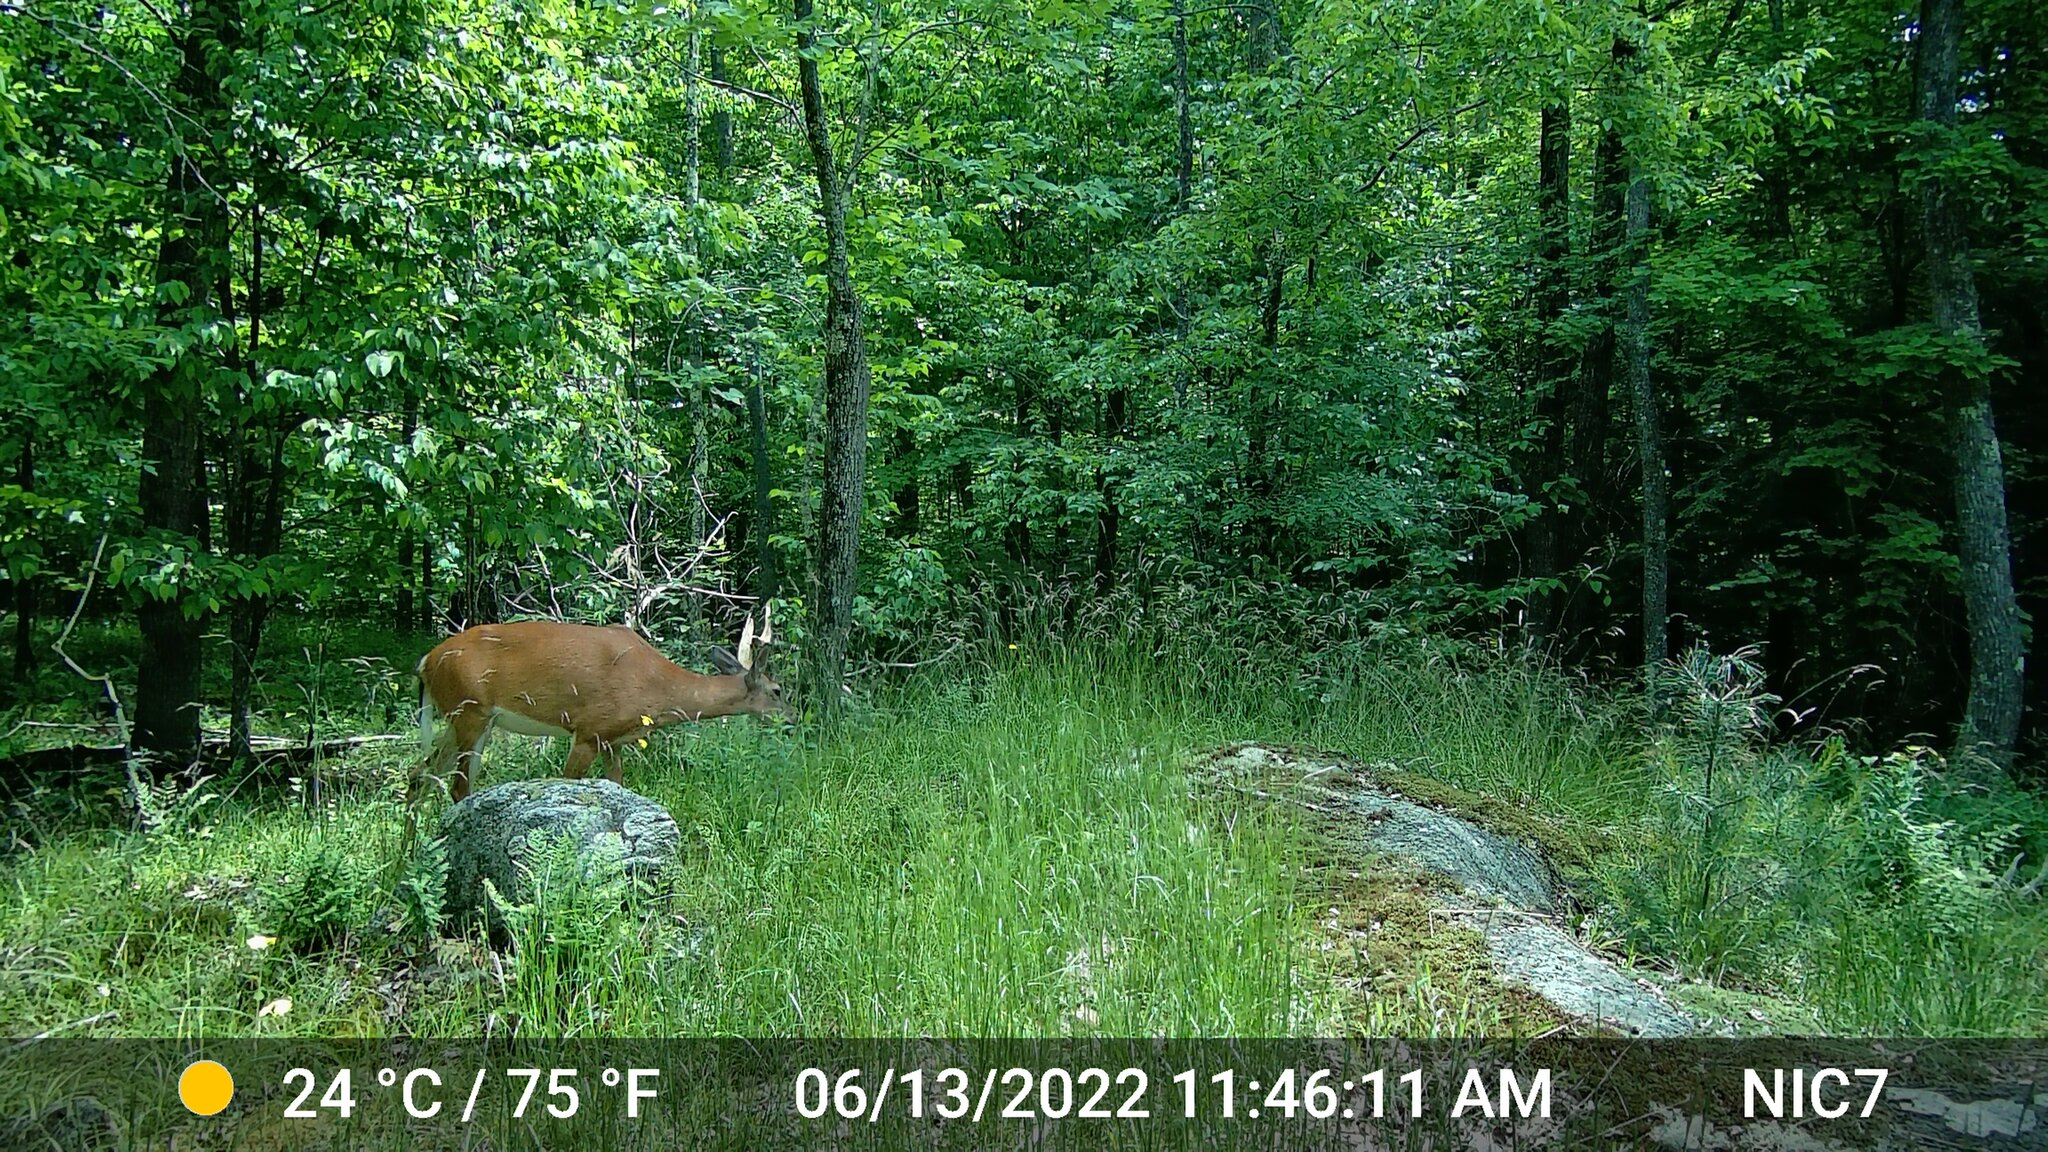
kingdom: Animalia
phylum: Chordata
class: Mammalia
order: Artiodactyla
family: Cervidae
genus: Odocoileus
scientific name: Odocoileus virginianus
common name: White-tailed deer
